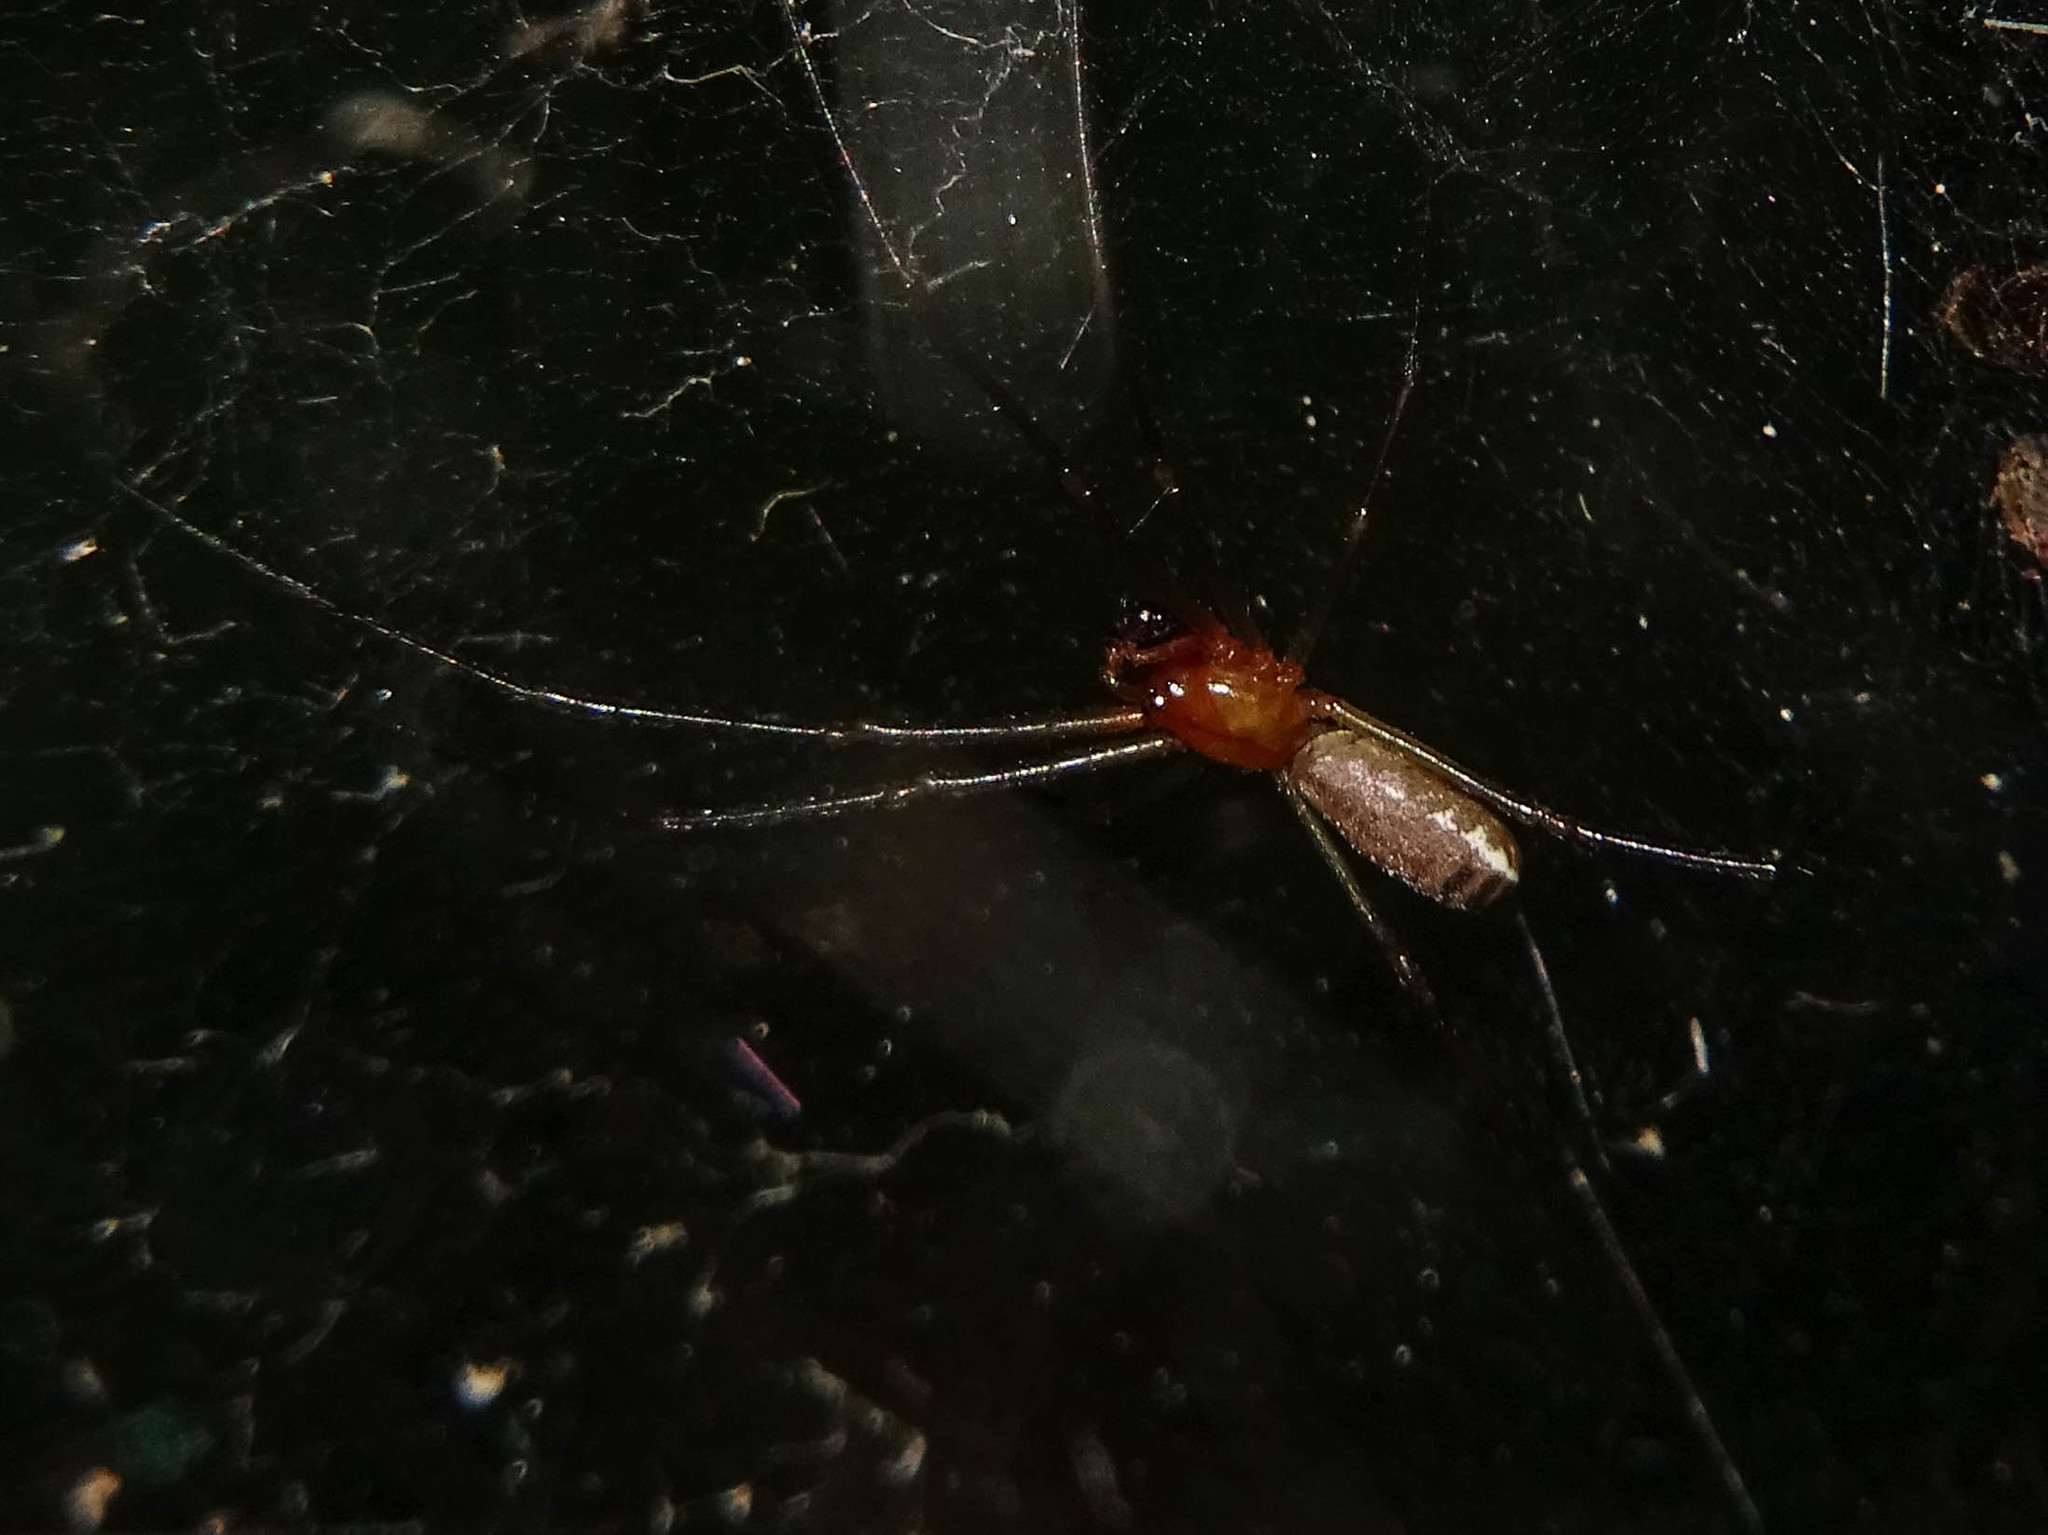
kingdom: Animalia
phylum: Arthropoda
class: Arachnida
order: Araneae
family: Linyphiidae
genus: Neriene
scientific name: Neriene emphana
